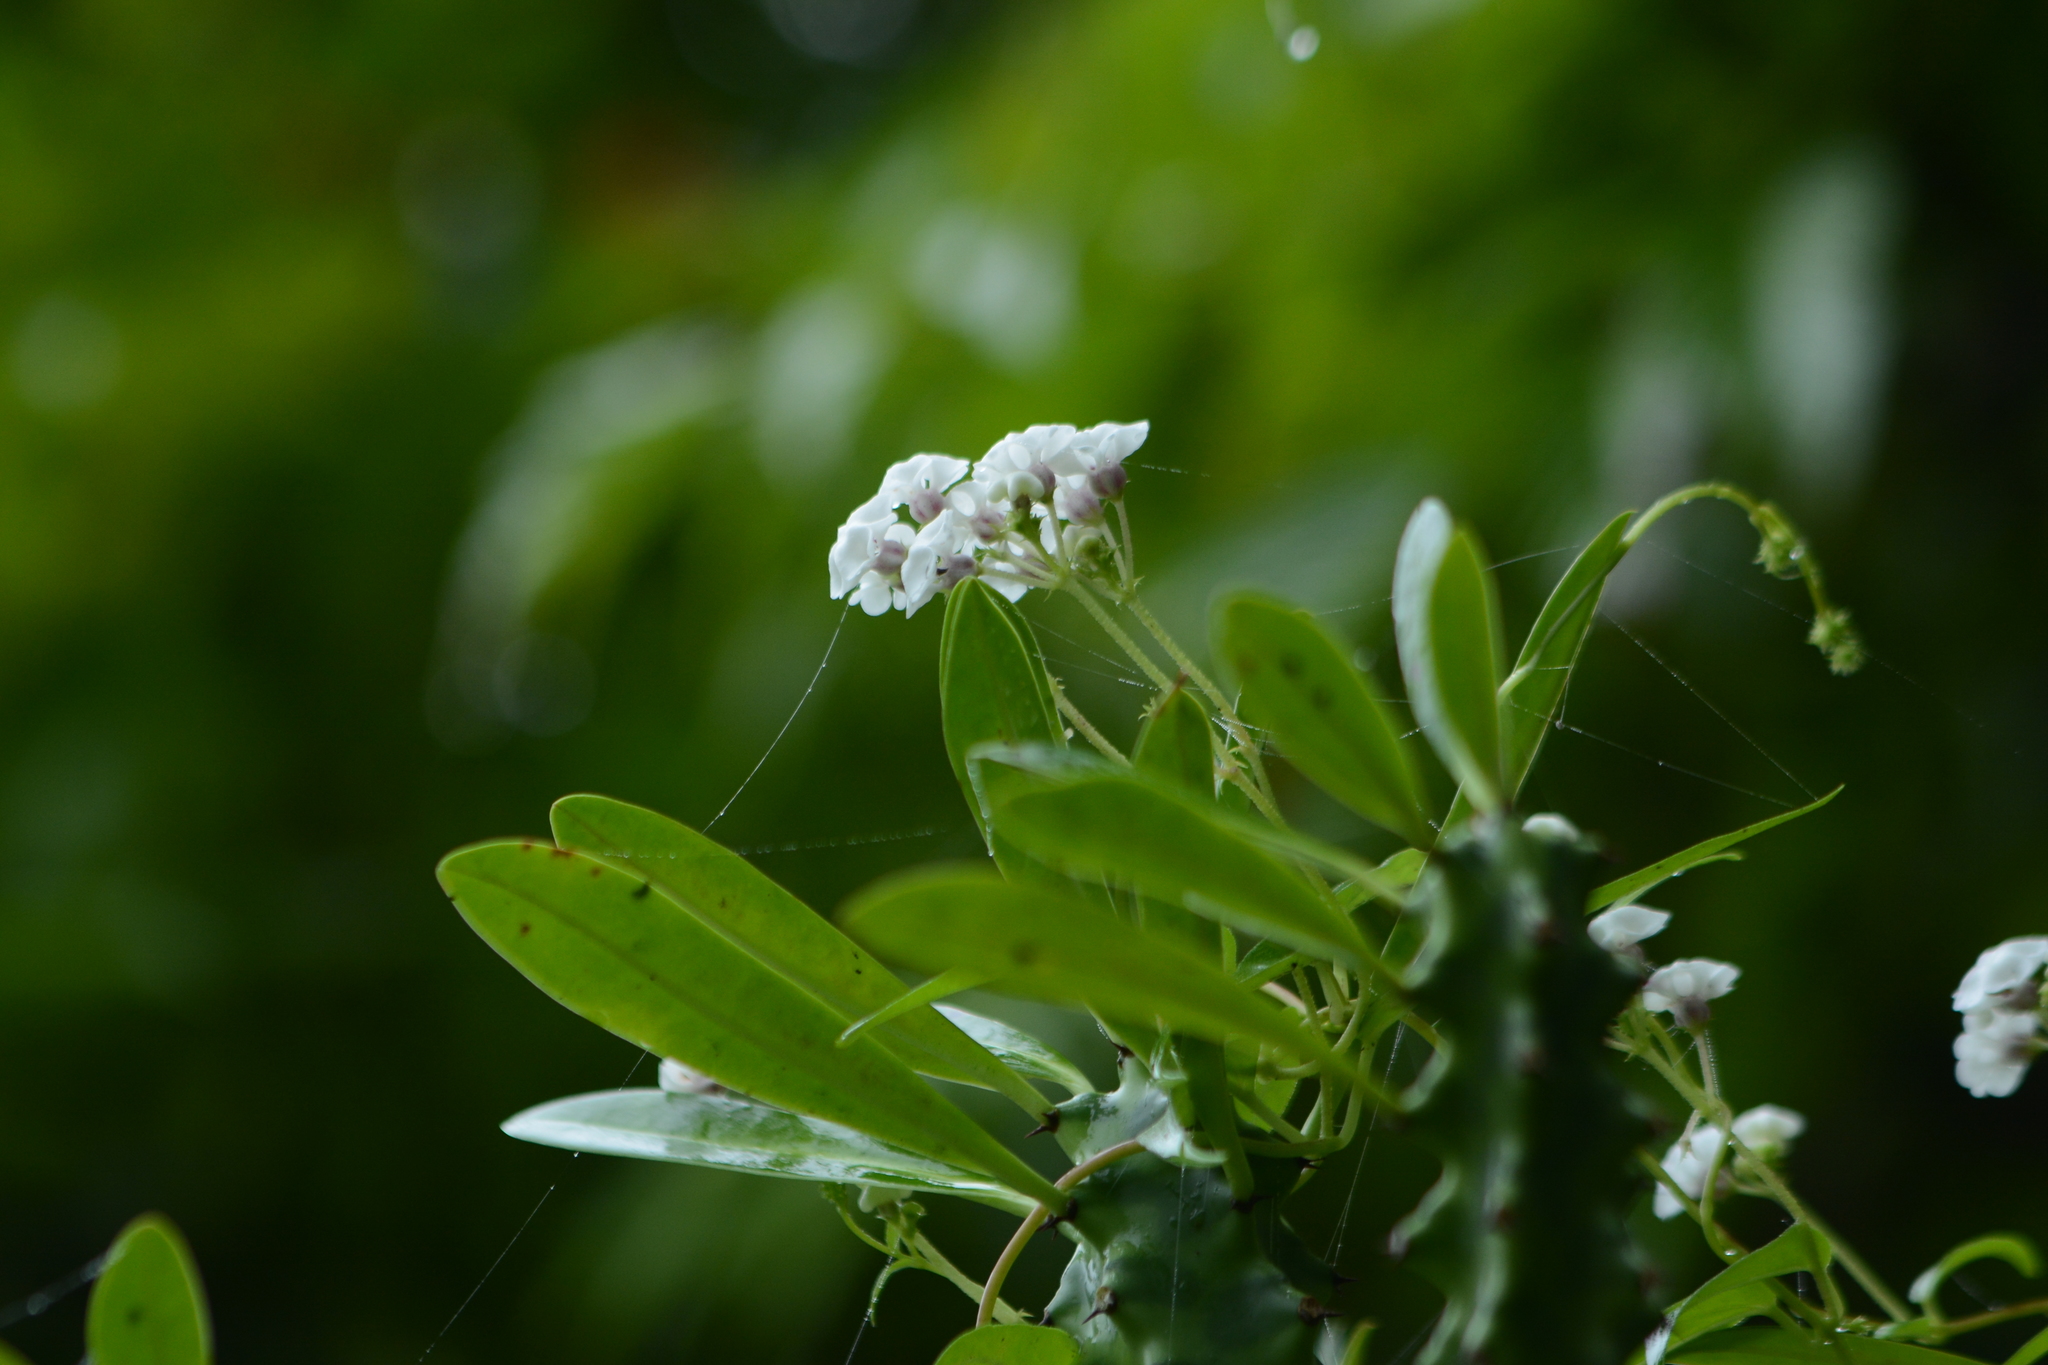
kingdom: Plantae
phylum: Tracheophyta
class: Magnoliopsida
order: Gentianales
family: Apocynaceae
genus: Ceropegia
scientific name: Ceropegia santapaui
